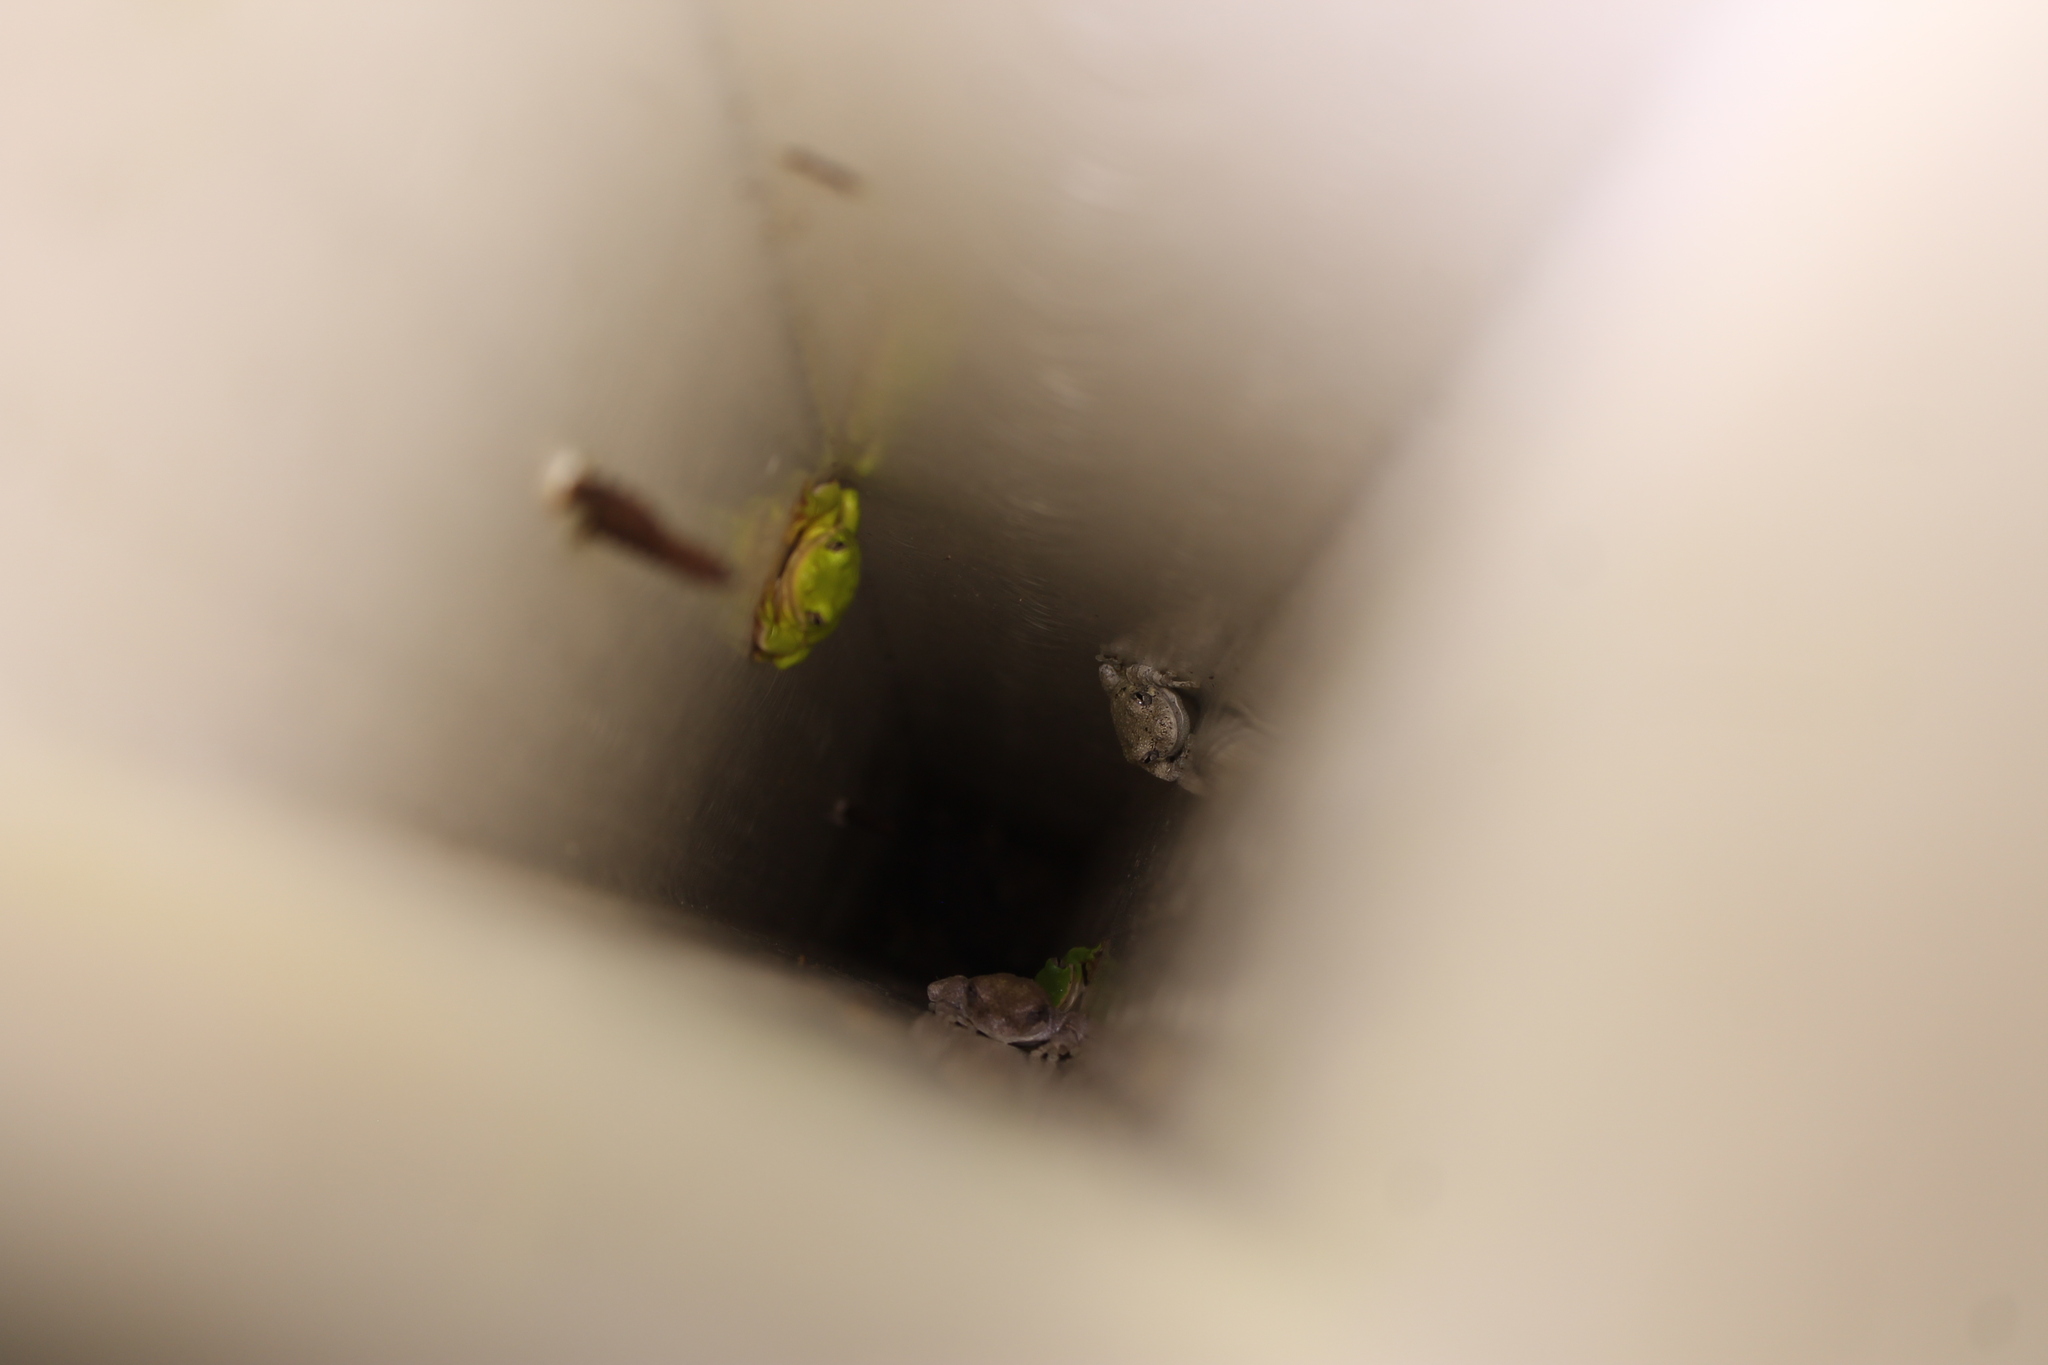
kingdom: Animalia
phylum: Chordata
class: Amphibia
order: Anura
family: Hylidae
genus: Dryophytes
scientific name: Dryophytes cinereus
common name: Green treefrog
